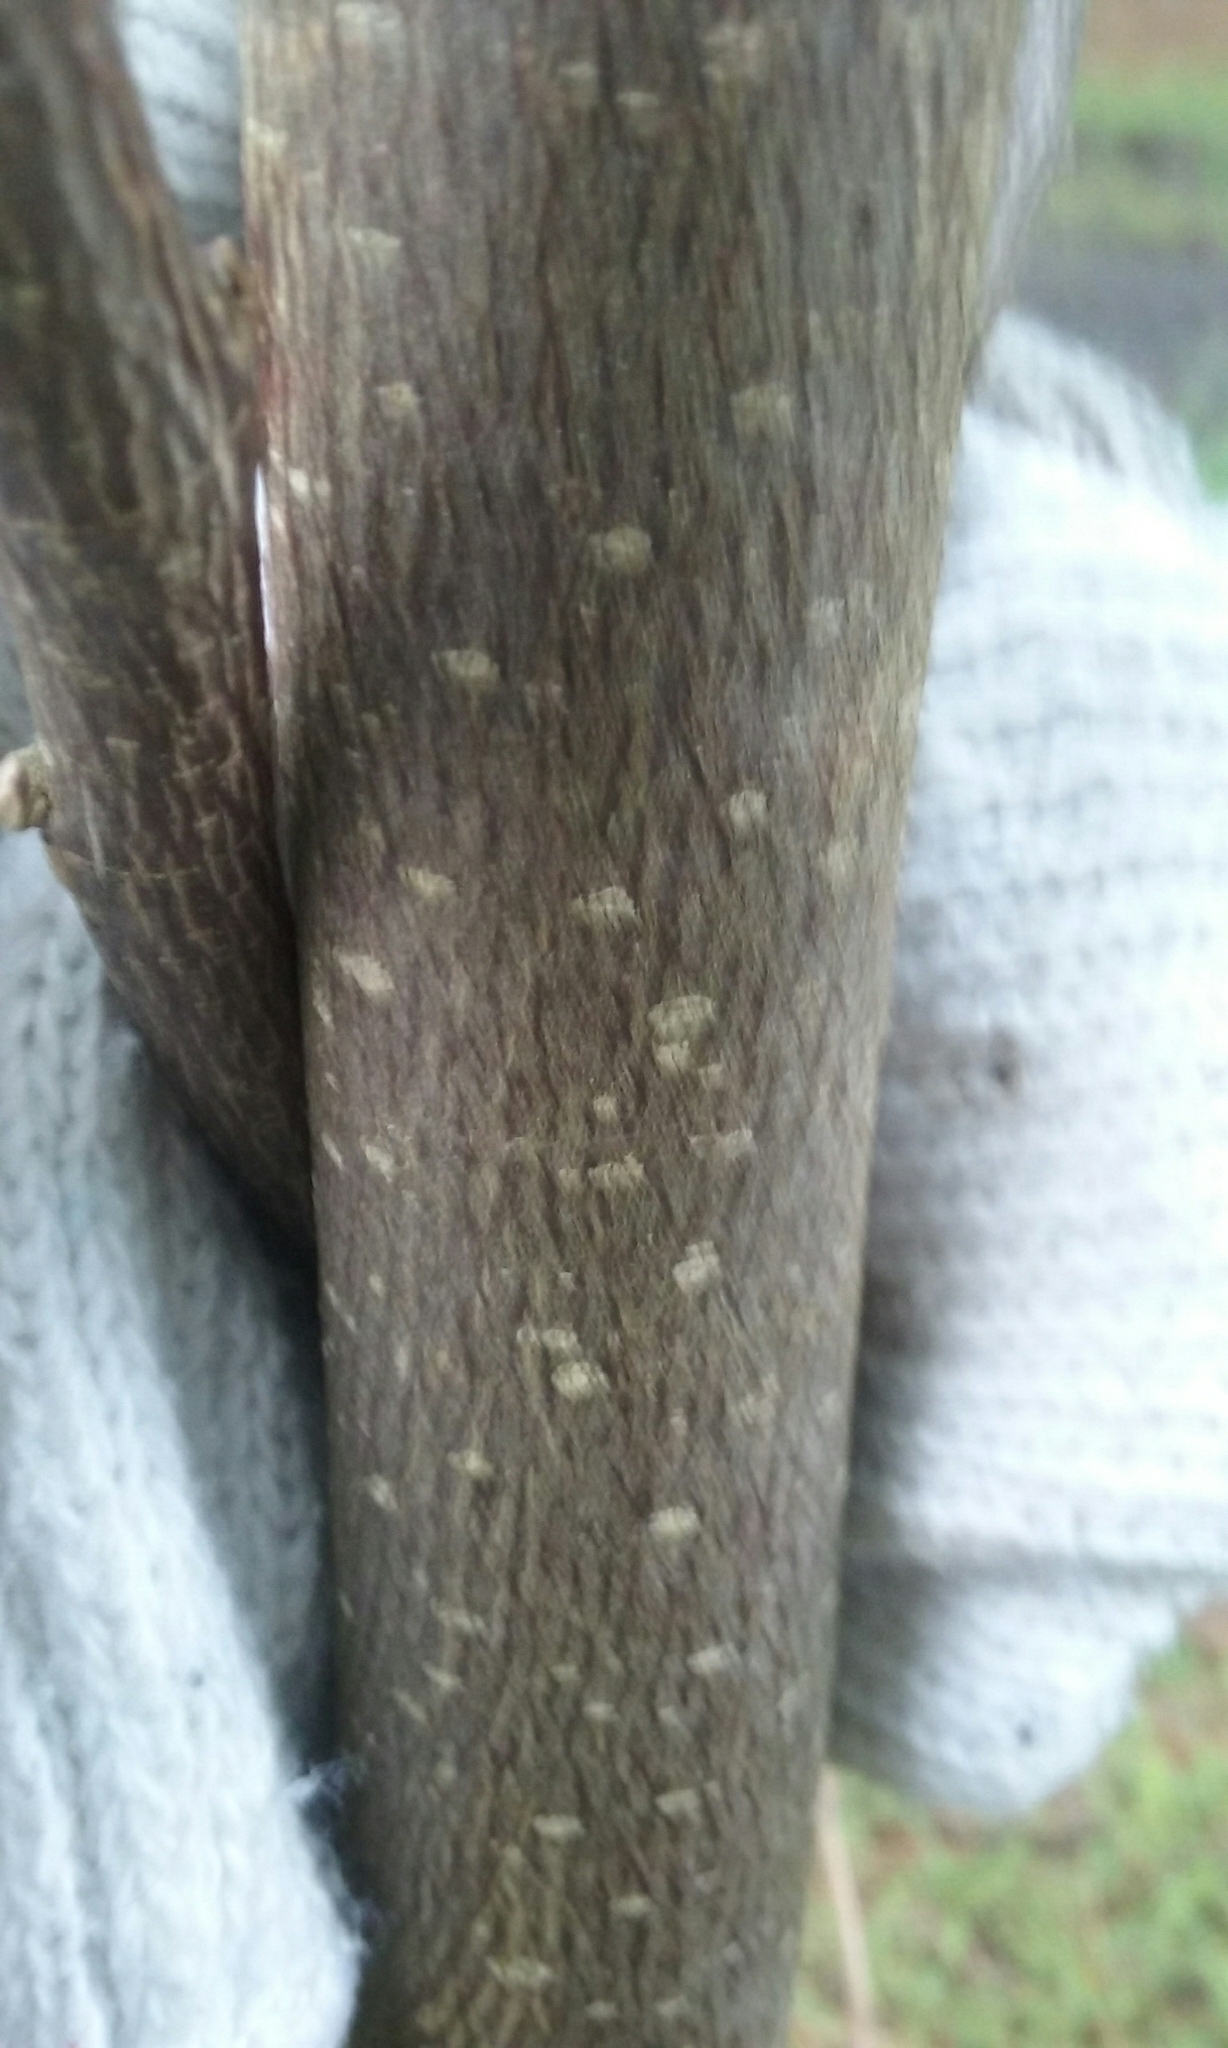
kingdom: Plantae
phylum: Tracheophyta
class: Magnoliopsida
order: Magnoliales
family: Magnoliaceae
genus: Liriodendron
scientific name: Liriodendron tulipifera
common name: Tulip tree
